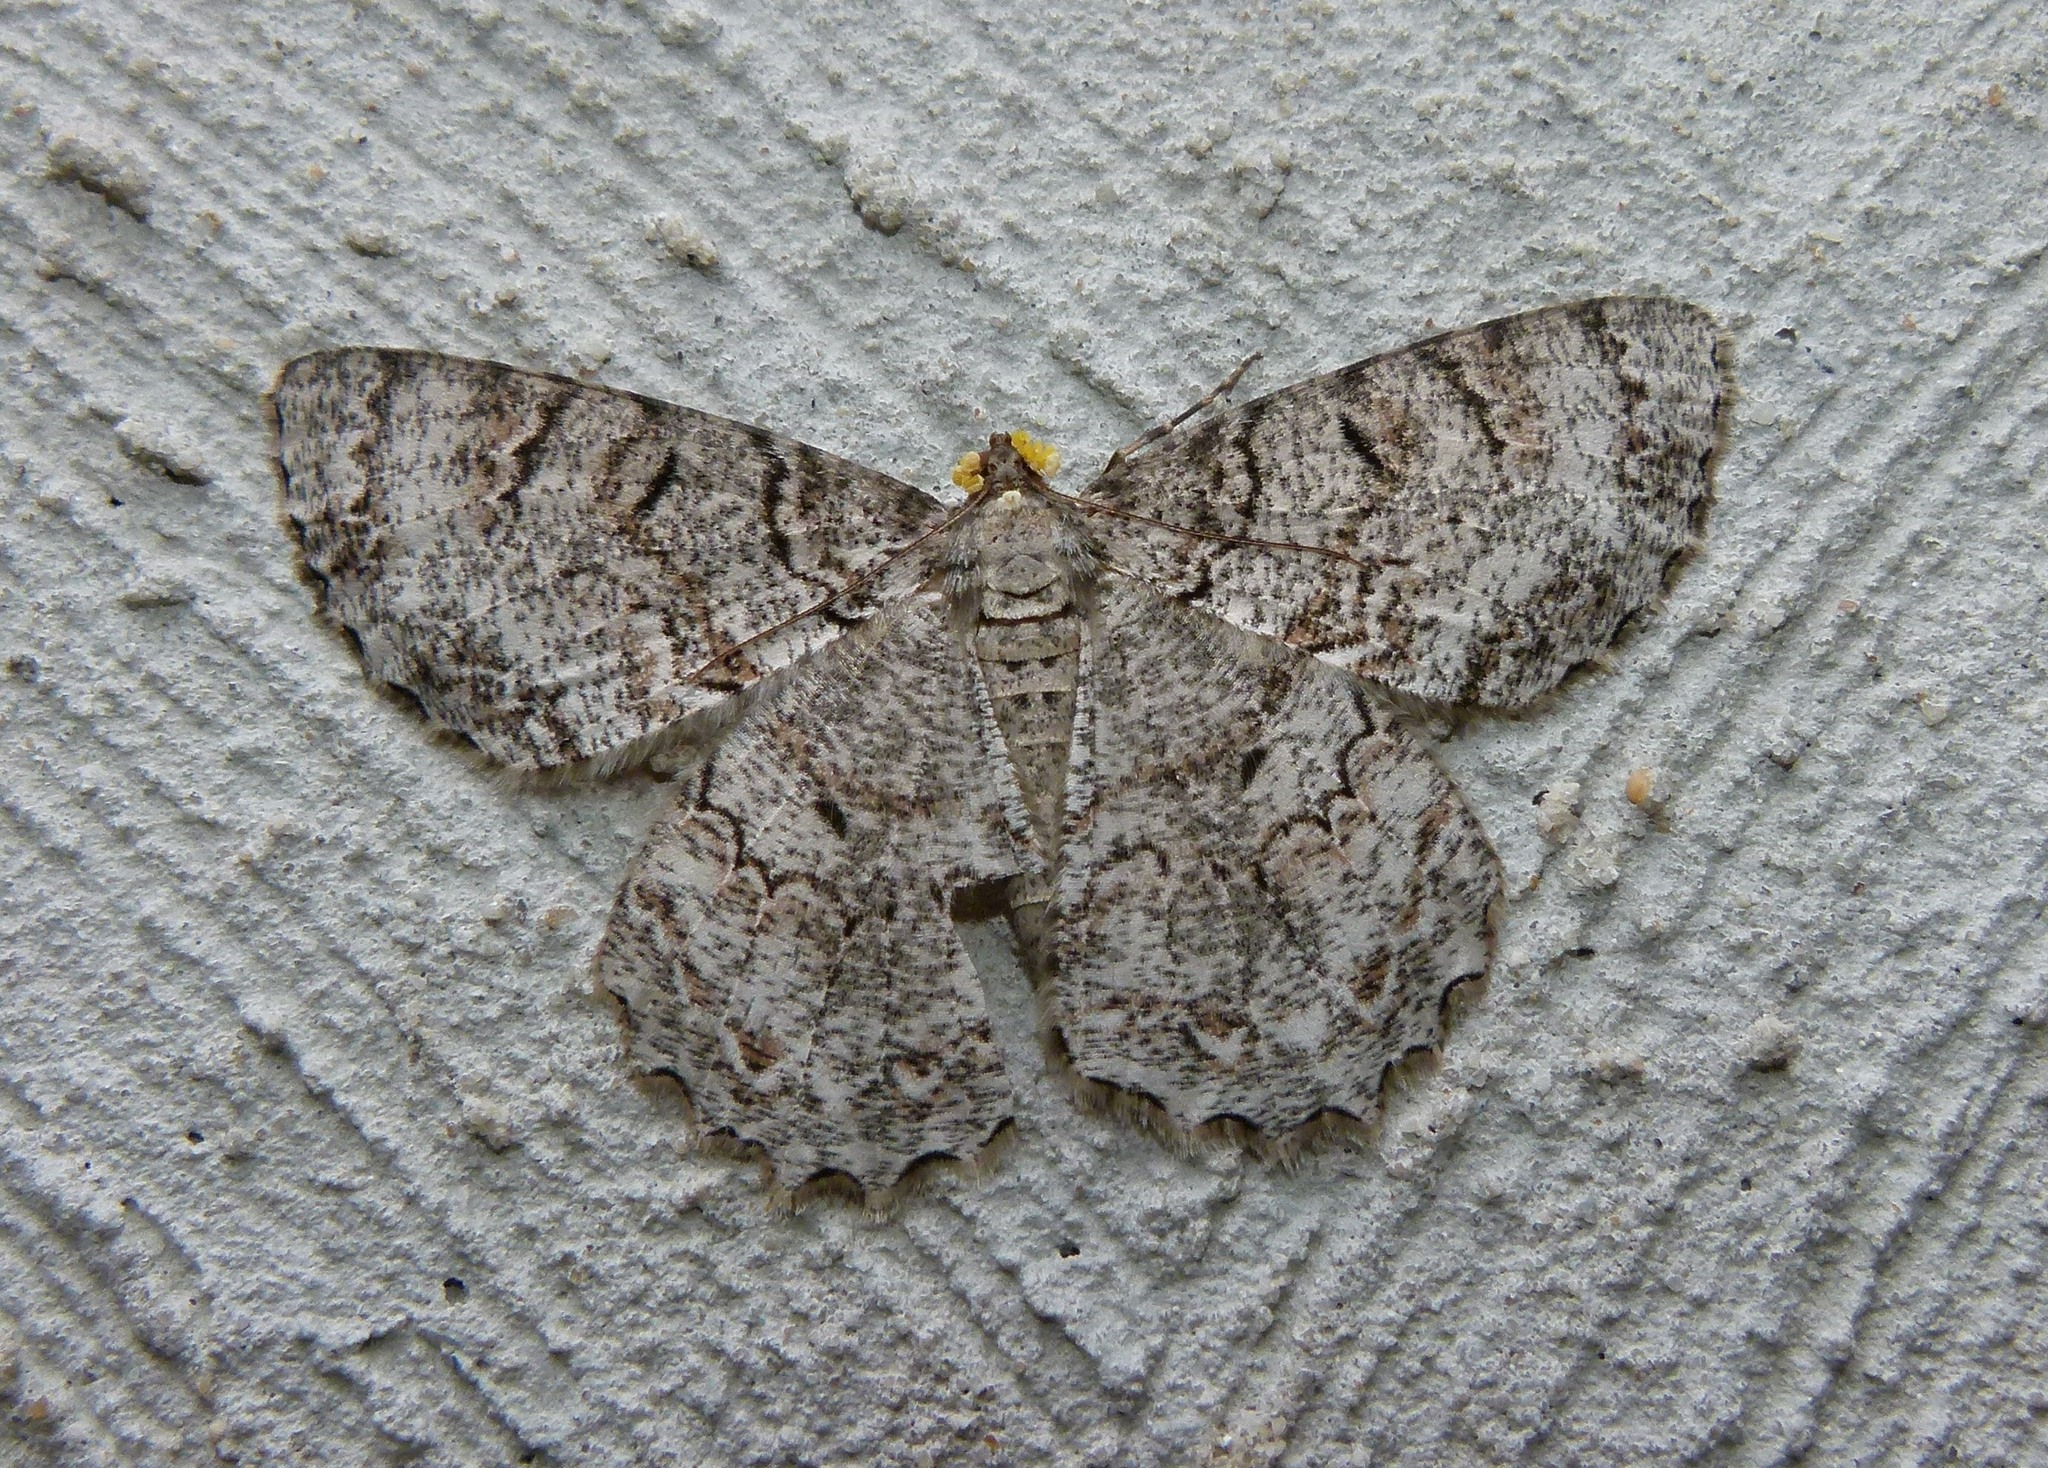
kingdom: Animalia
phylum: Arthropoda
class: Insecta
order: Lepidoptera
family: Geometridae
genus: Epimecis
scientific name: Epimecis hortaria
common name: Tulip-tree beauty
